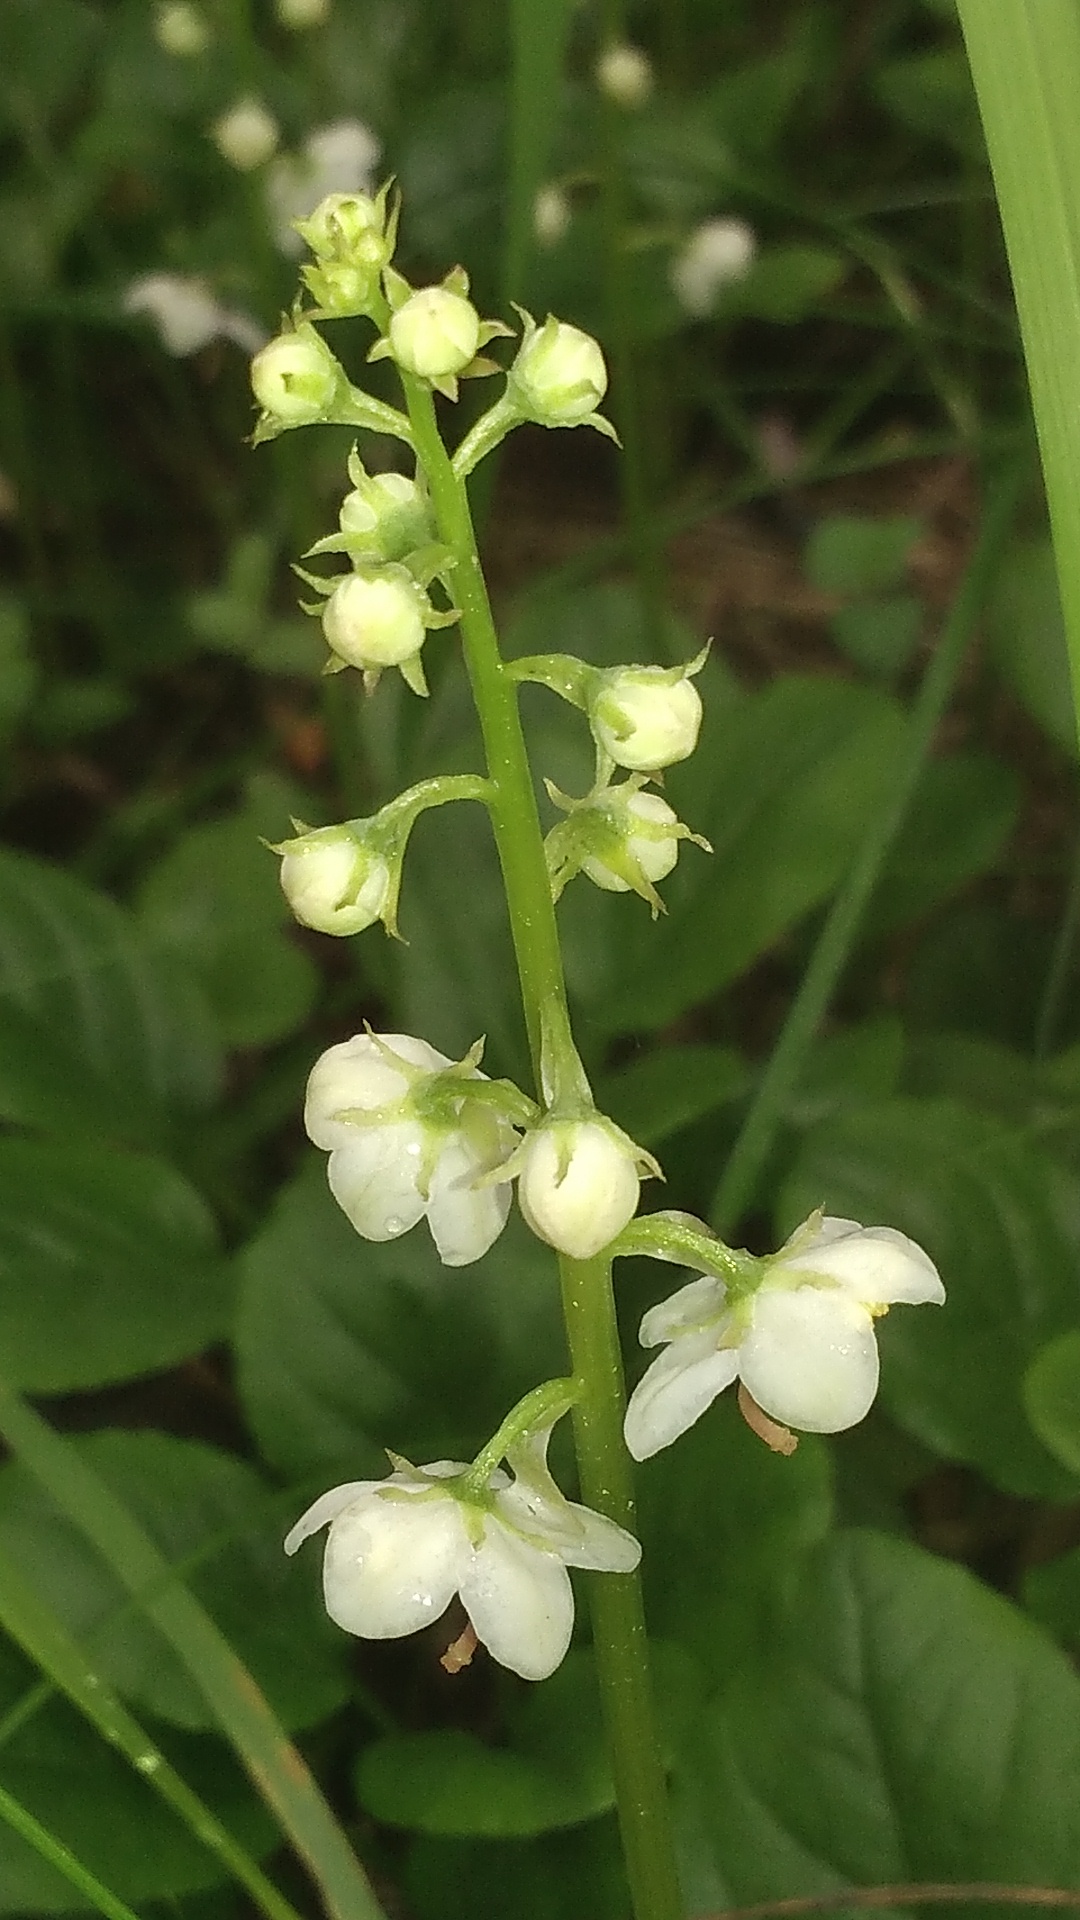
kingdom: Plantae
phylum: Tracheophyta
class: Magnoliopsida
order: Ericales
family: Ericaceae
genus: Pyrola
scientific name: Pyrola rotundifolia
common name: Round-leaved wintergreen
